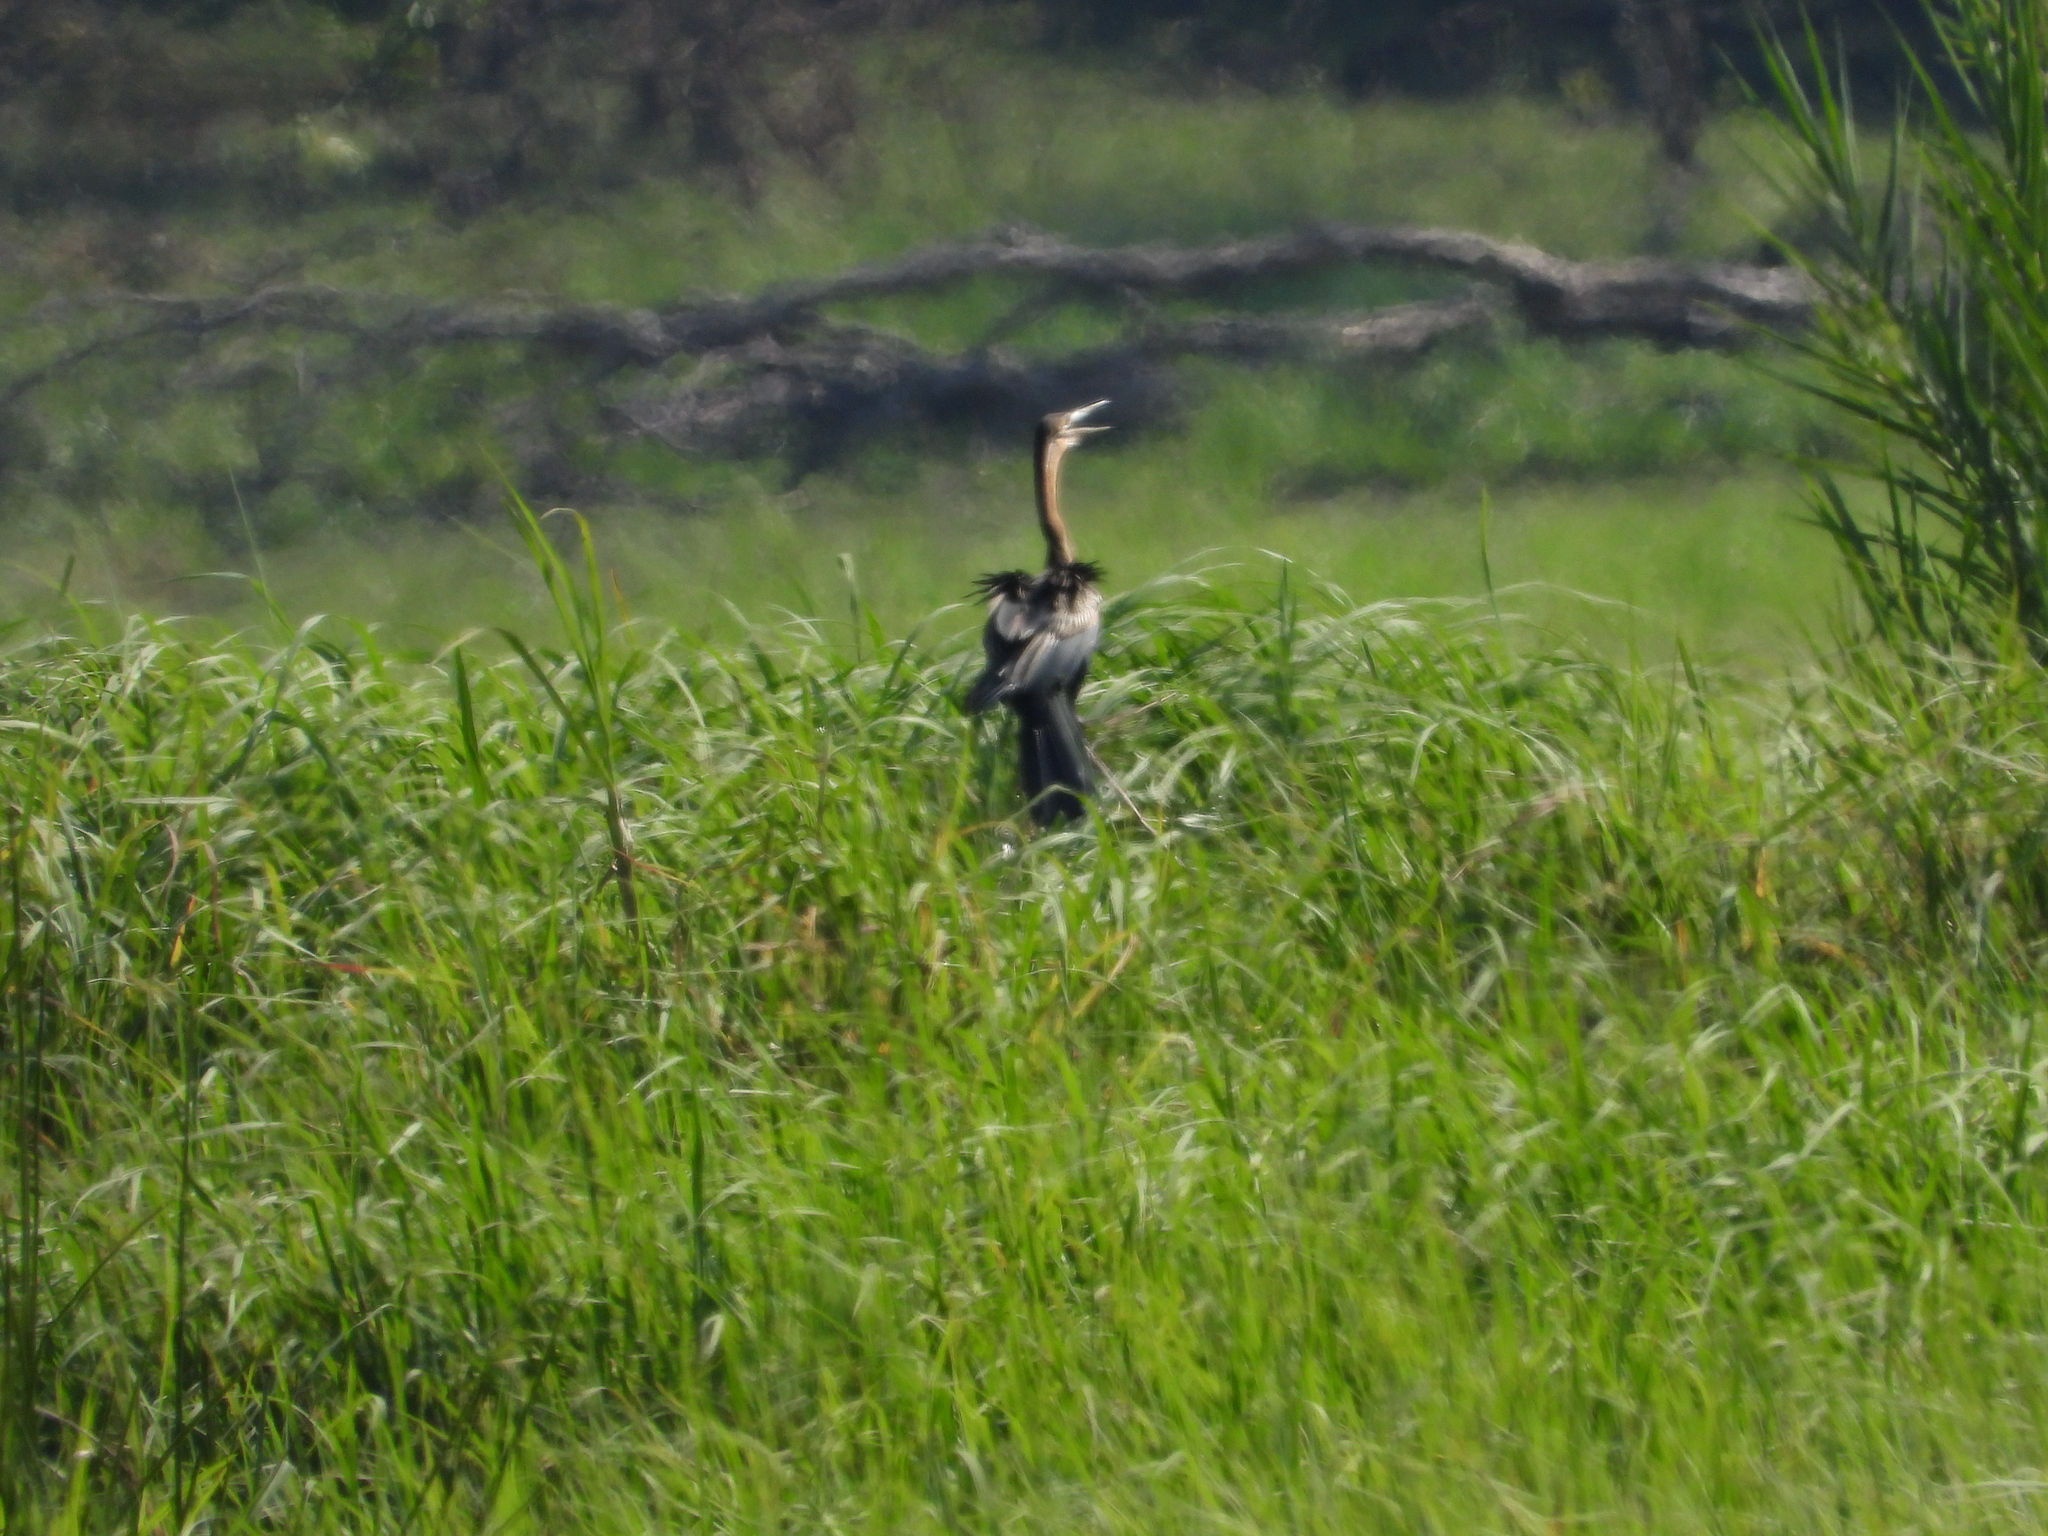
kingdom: Animalia
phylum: Chordata
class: Aves
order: Suliformes
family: Anhingidae
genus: Anhinga
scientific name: Anhinga rufa
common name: African darter
